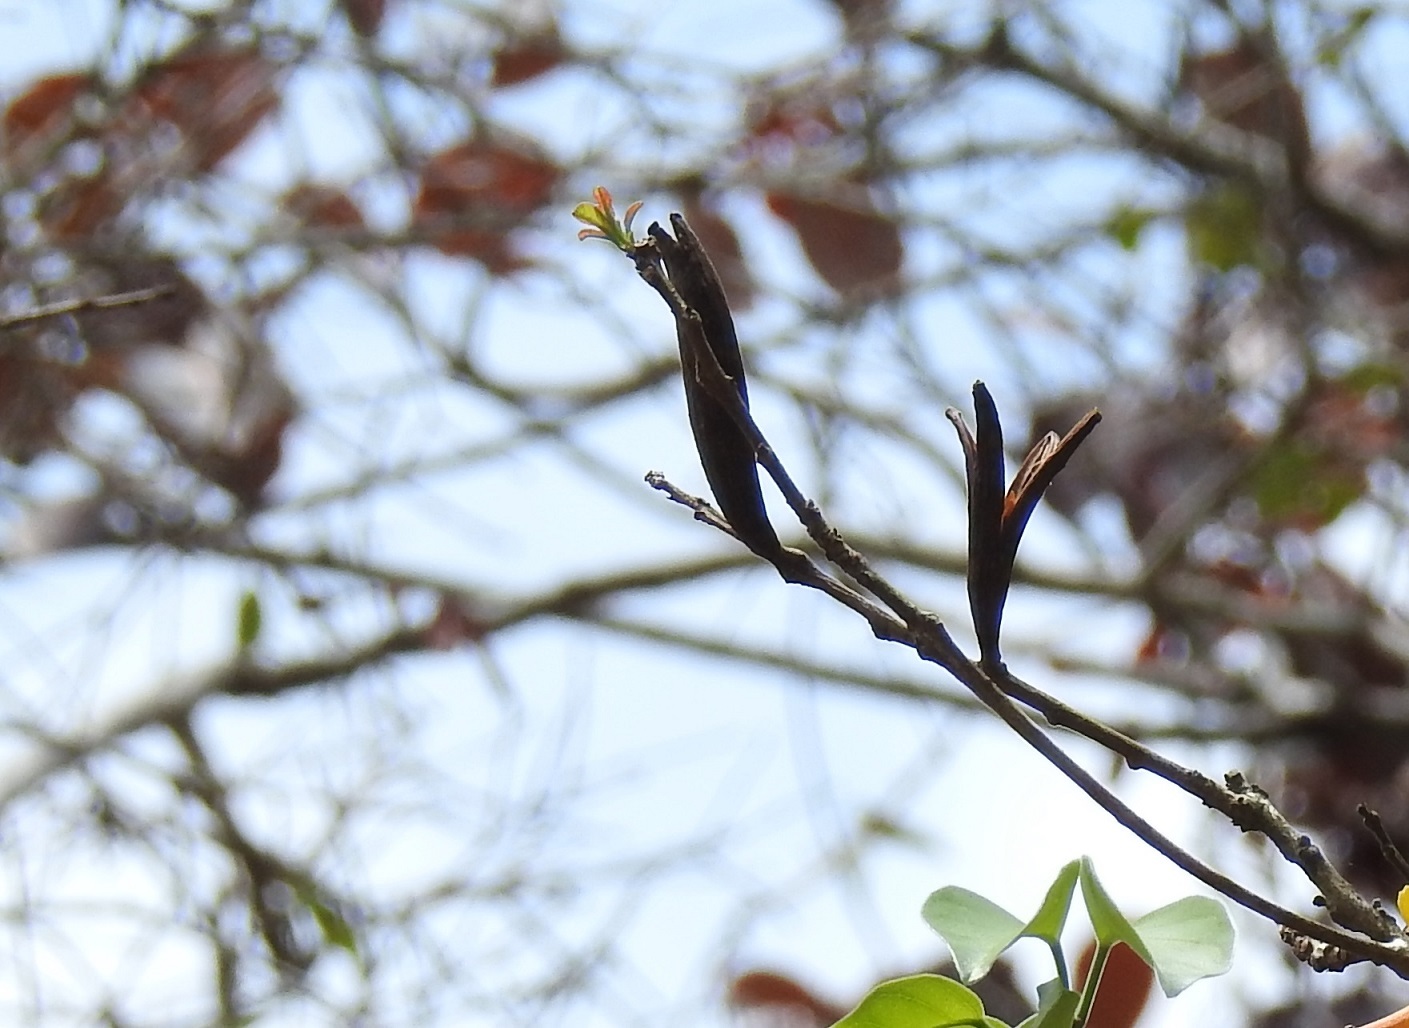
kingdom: Plantae
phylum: Tracheophyta
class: Magnoliopsida
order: Myrtales
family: Onagraceae
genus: Hauya
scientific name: Hauya elegans
